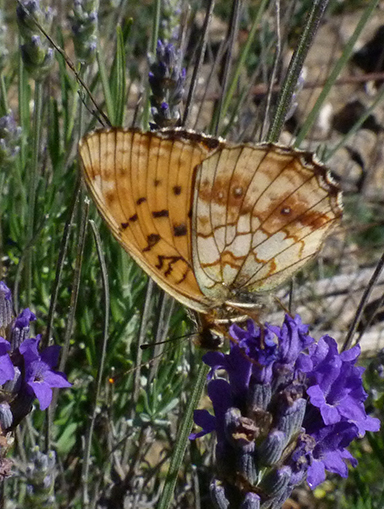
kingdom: Animalia
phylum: Arthropoda
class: Insecta
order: Lepidoptera
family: Nymphalidae
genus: Brenthis
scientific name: Brenthis ino
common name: Lesser marbled fritillary
